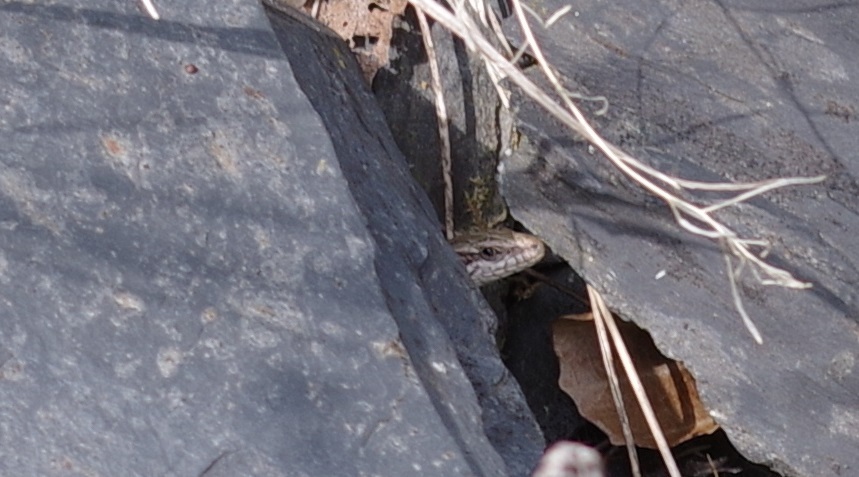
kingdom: Animalia
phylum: Chordata
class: Squamata
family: Lacertidae
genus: Podarcis
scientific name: Podarcis muralis
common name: Common wall lizard
